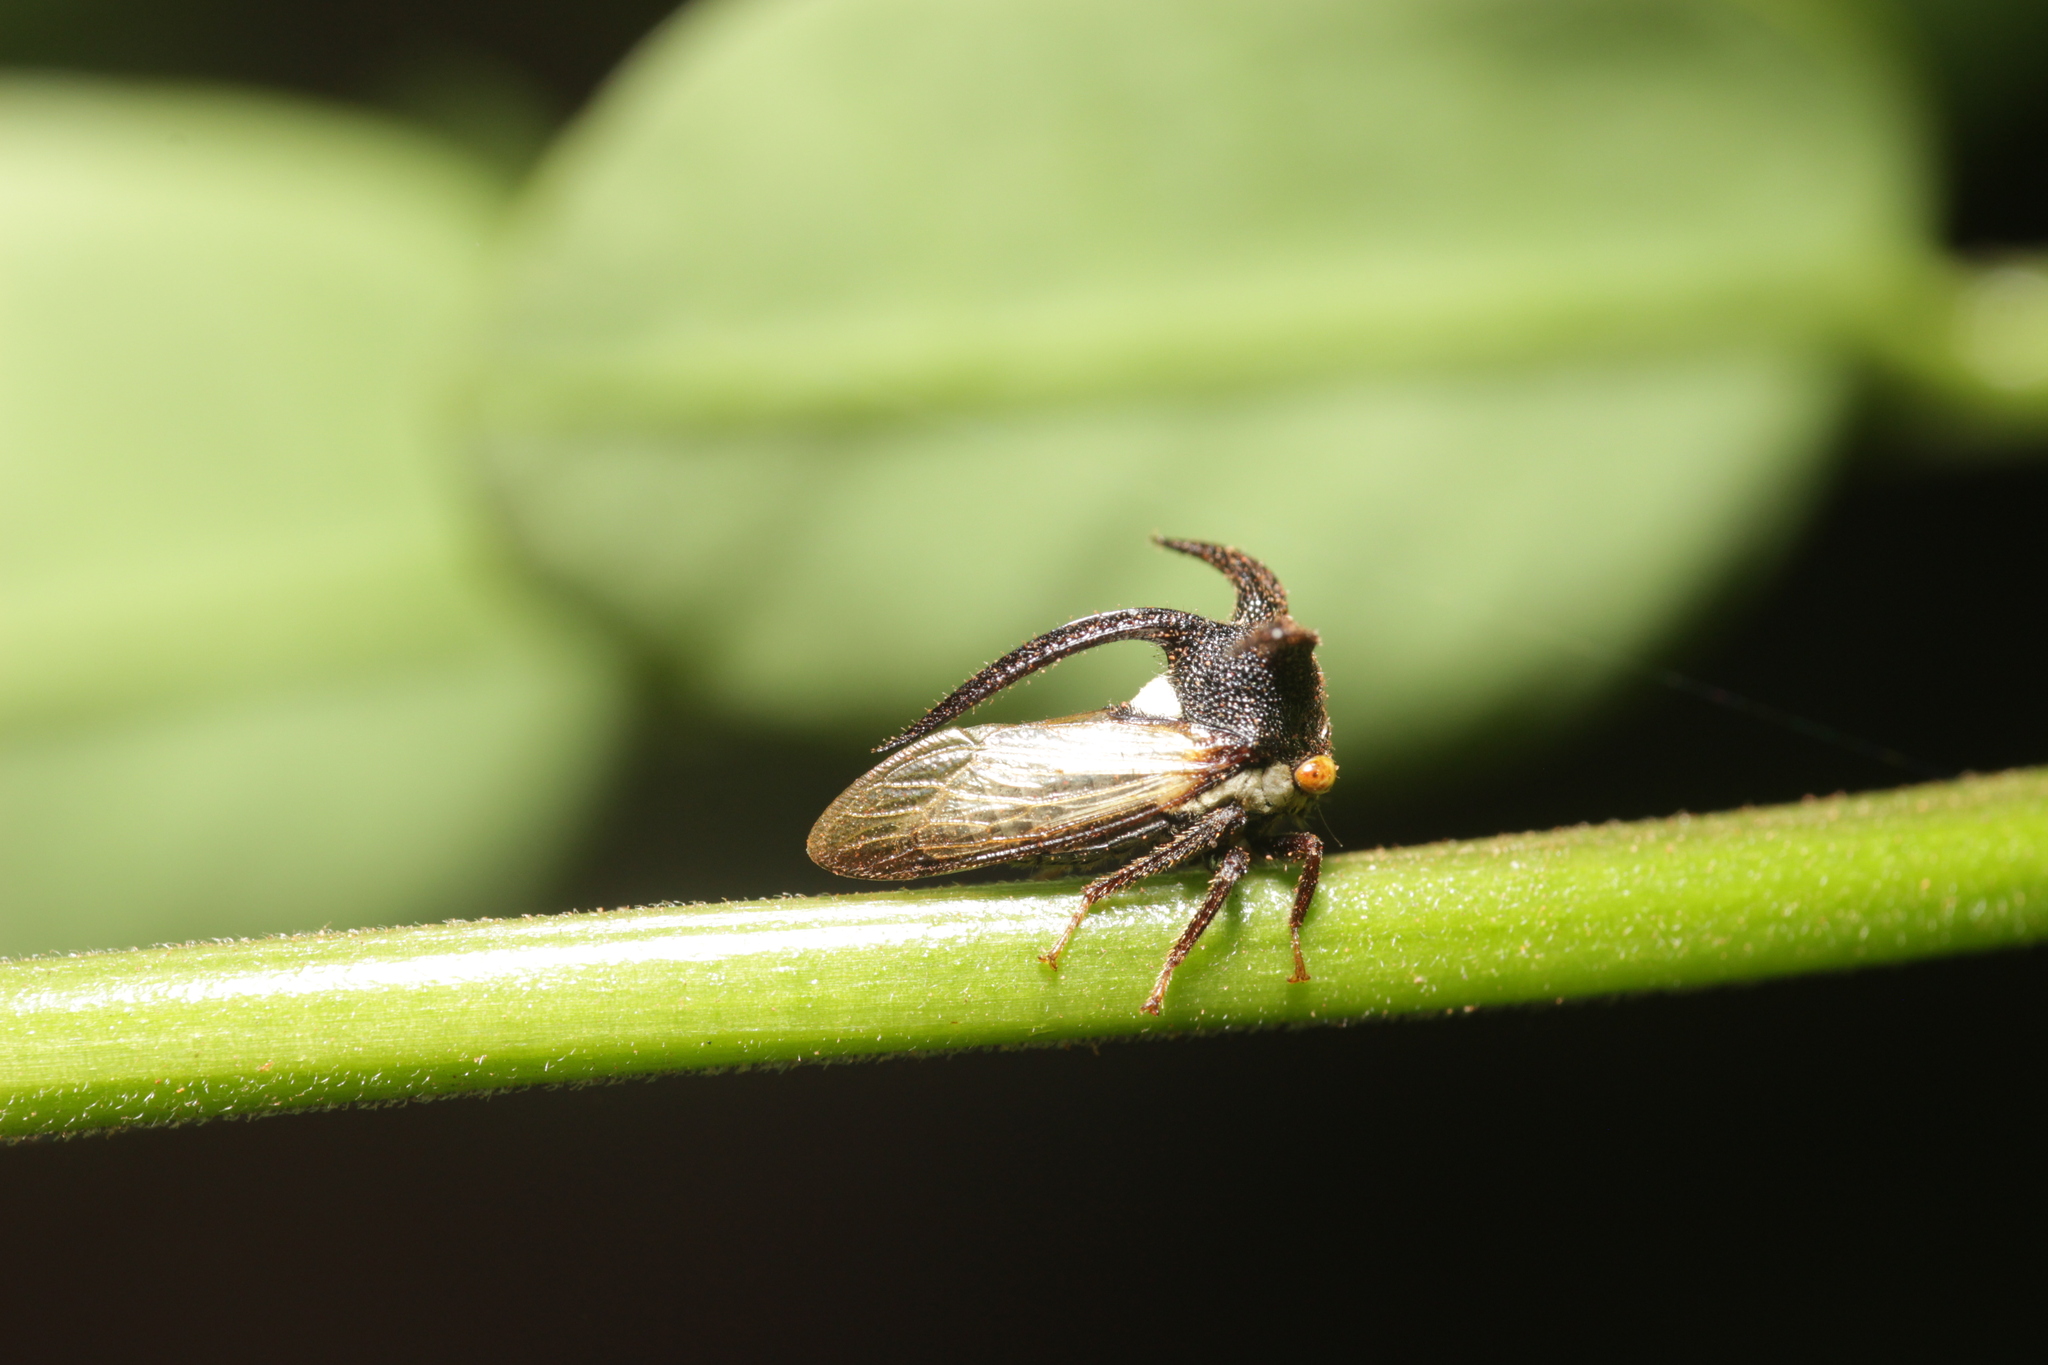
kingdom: Animalia
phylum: Arthropoda
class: Insecta
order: Hemiptera
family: Membracidae
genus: Leptocentrus
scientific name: Leptocentrus taurus
